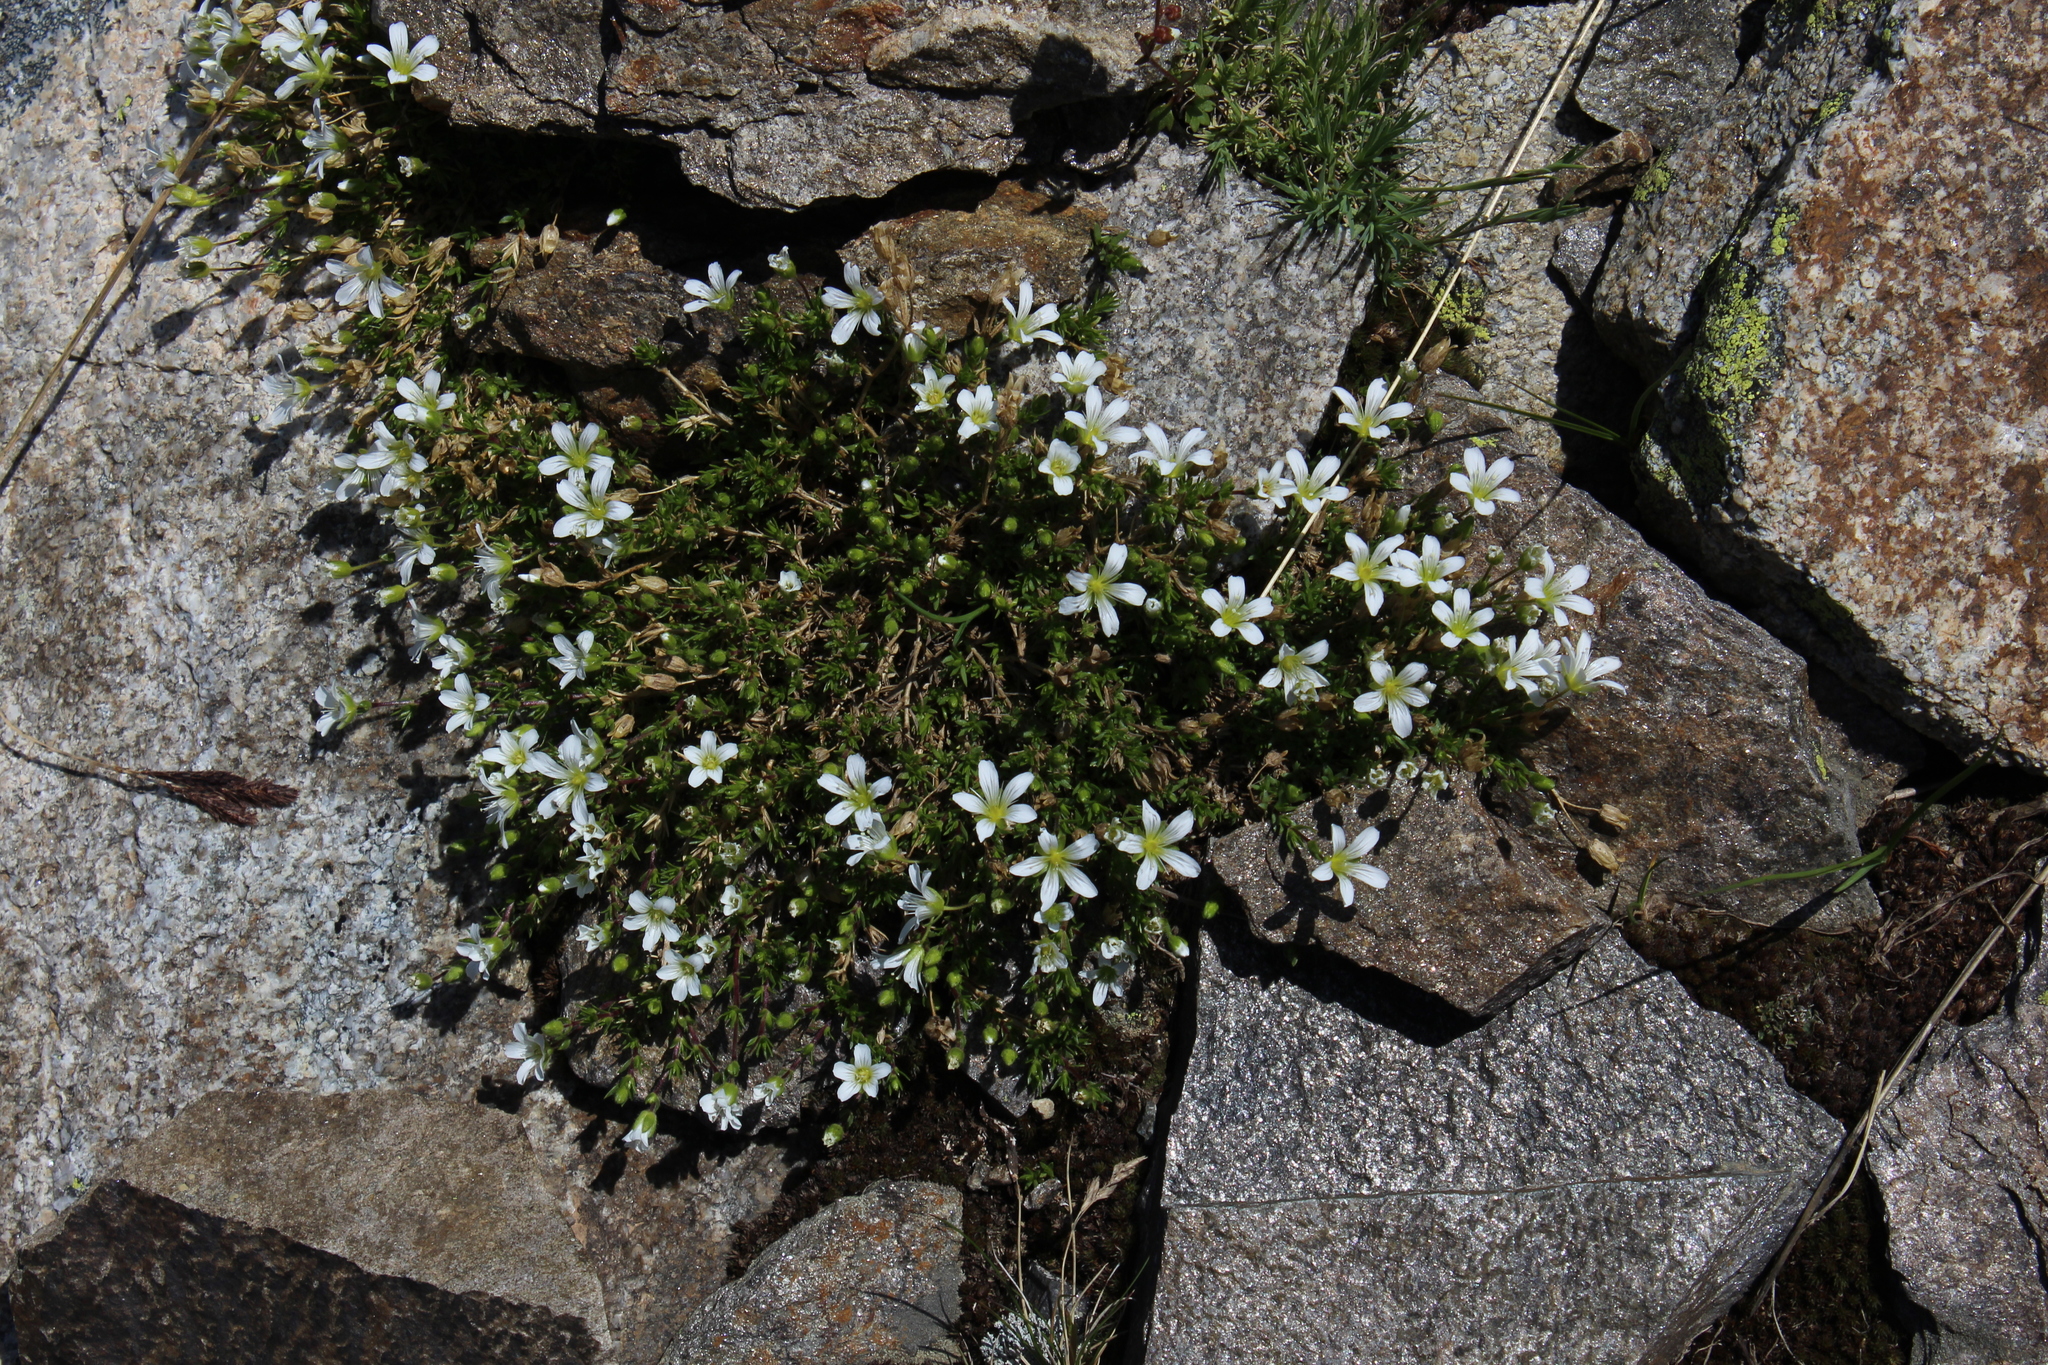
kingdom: Plantae
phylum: Tracheophyta
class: Magnoliopsida
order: Caryophyllales
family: Caryophyllaceae
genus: Pseudocherleria
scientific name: Pseudocherleria imbricata
